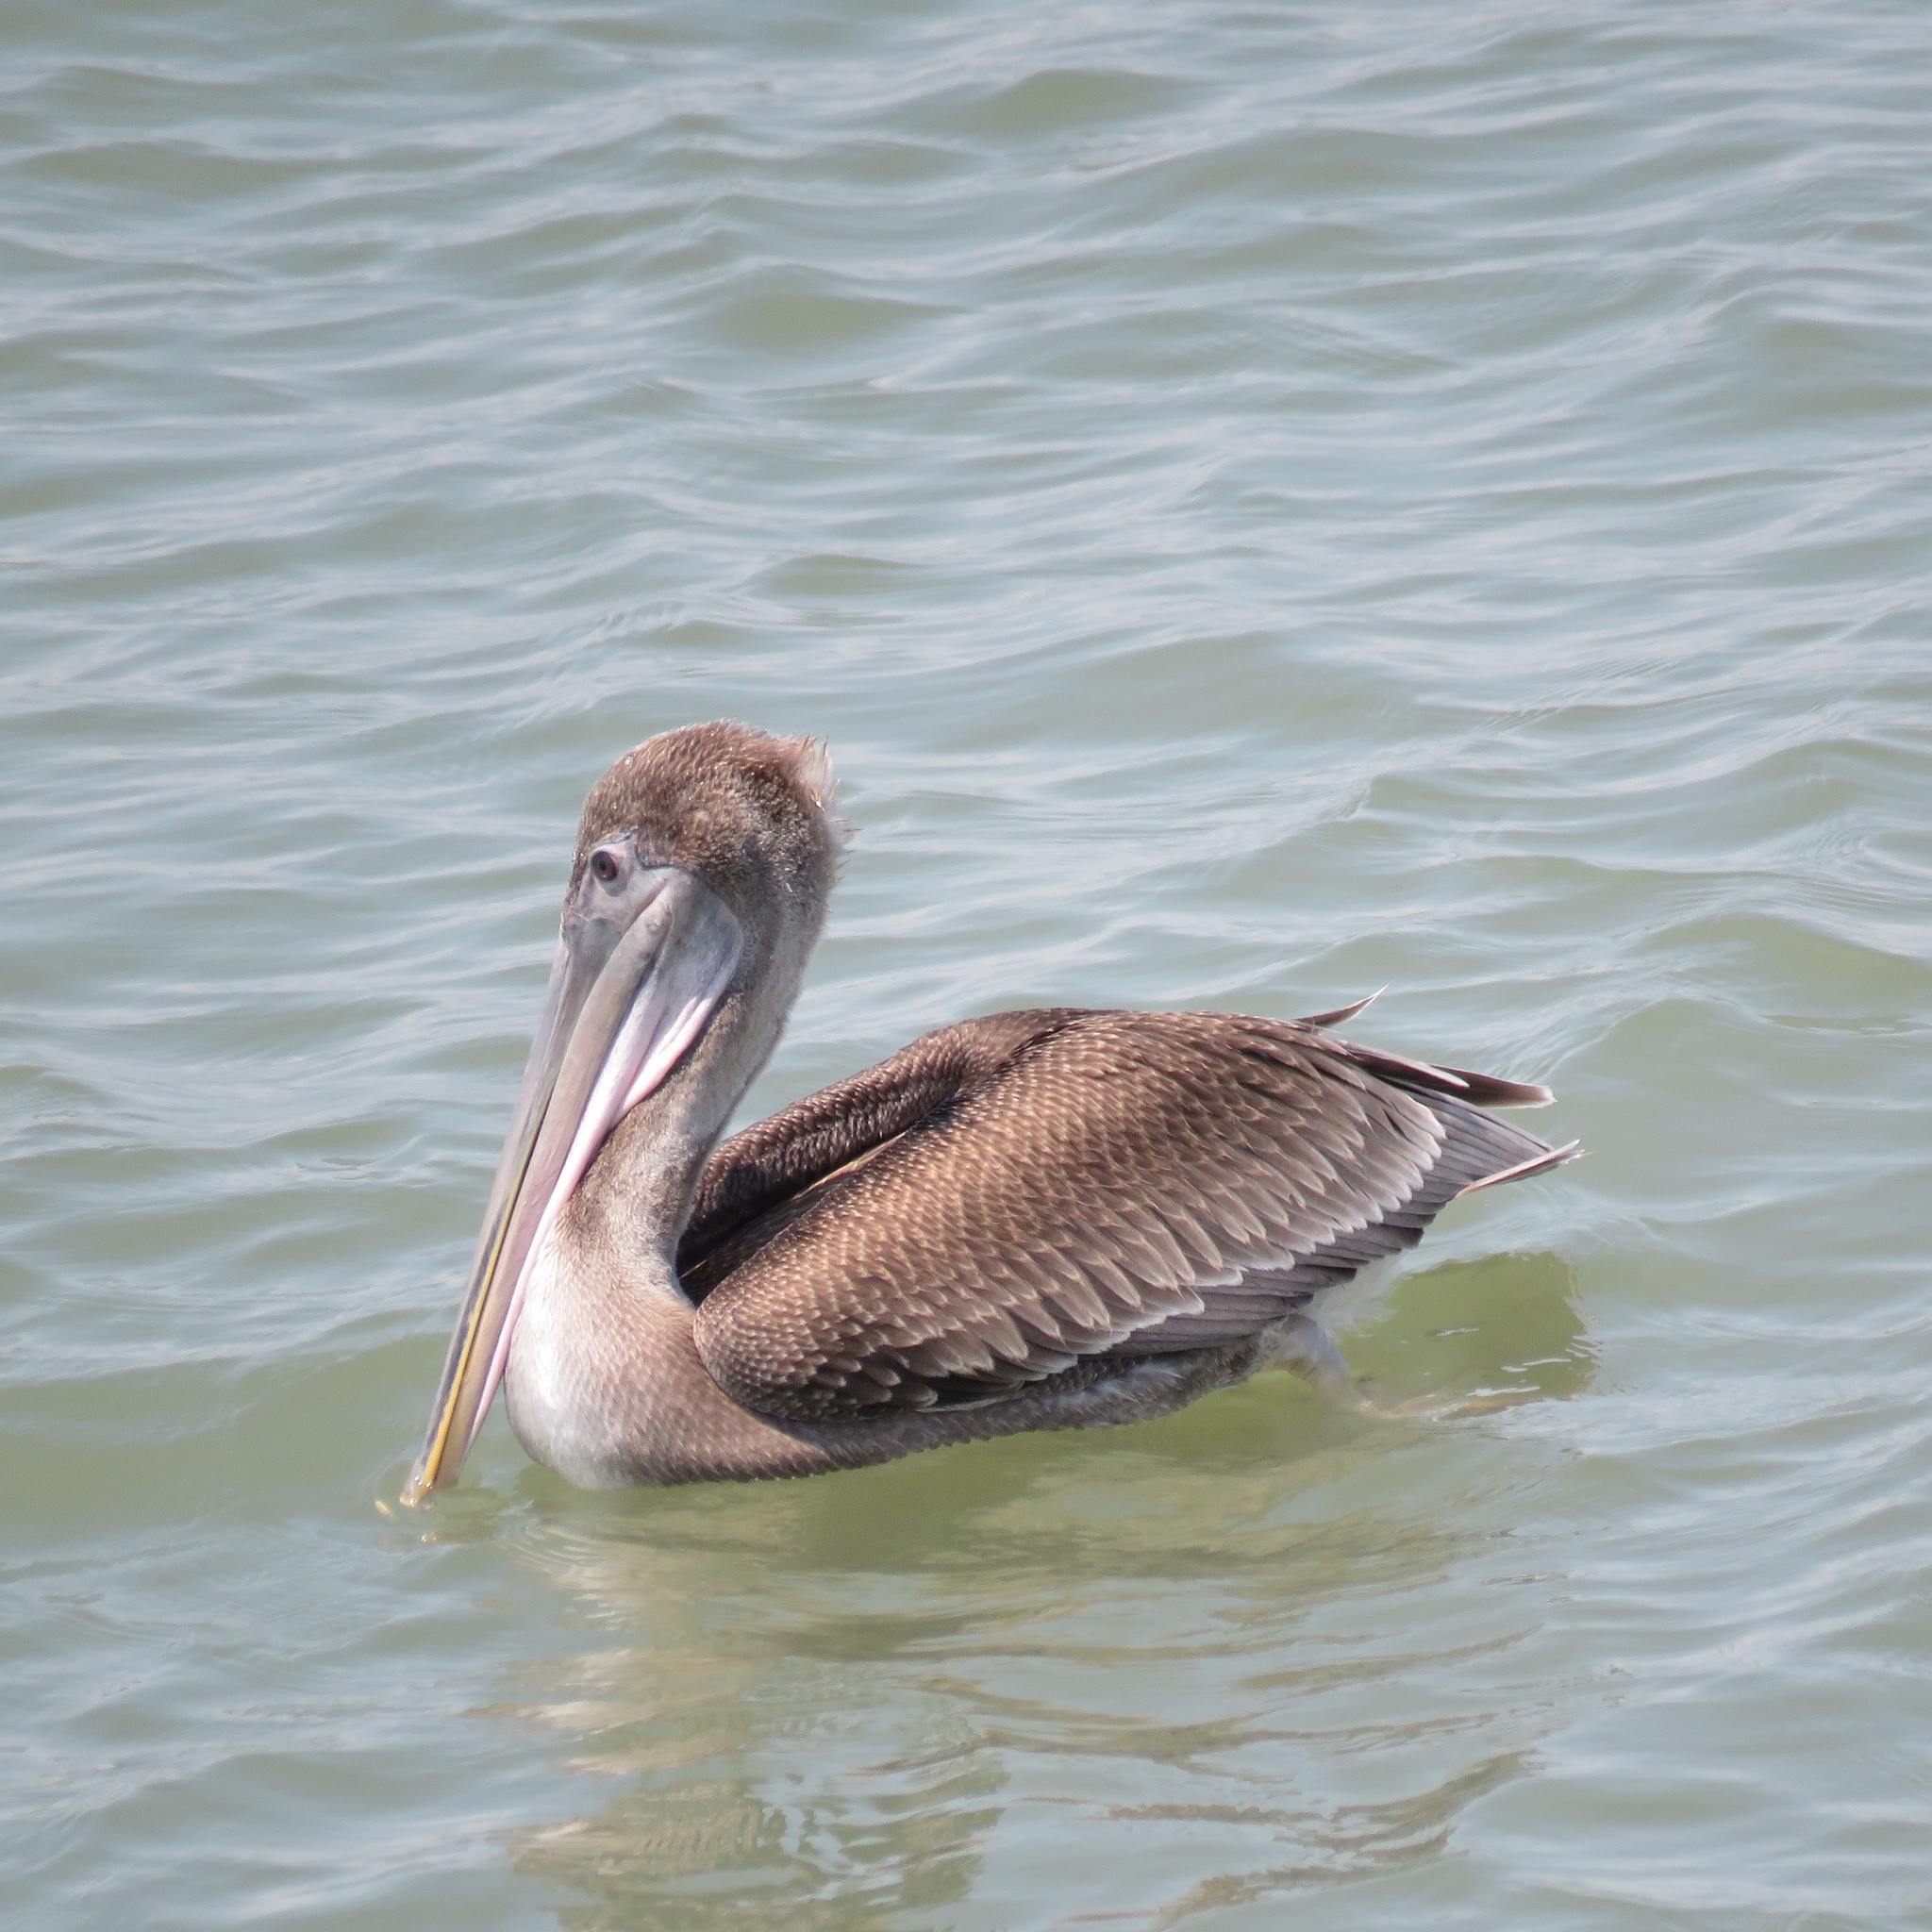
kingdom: Animalia
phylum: Chordata
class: Aves
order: Pelecaniformes
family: Pelecanidae
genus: Pelecanus
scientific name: Pelecanus occidentalis
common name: Brown pelican
